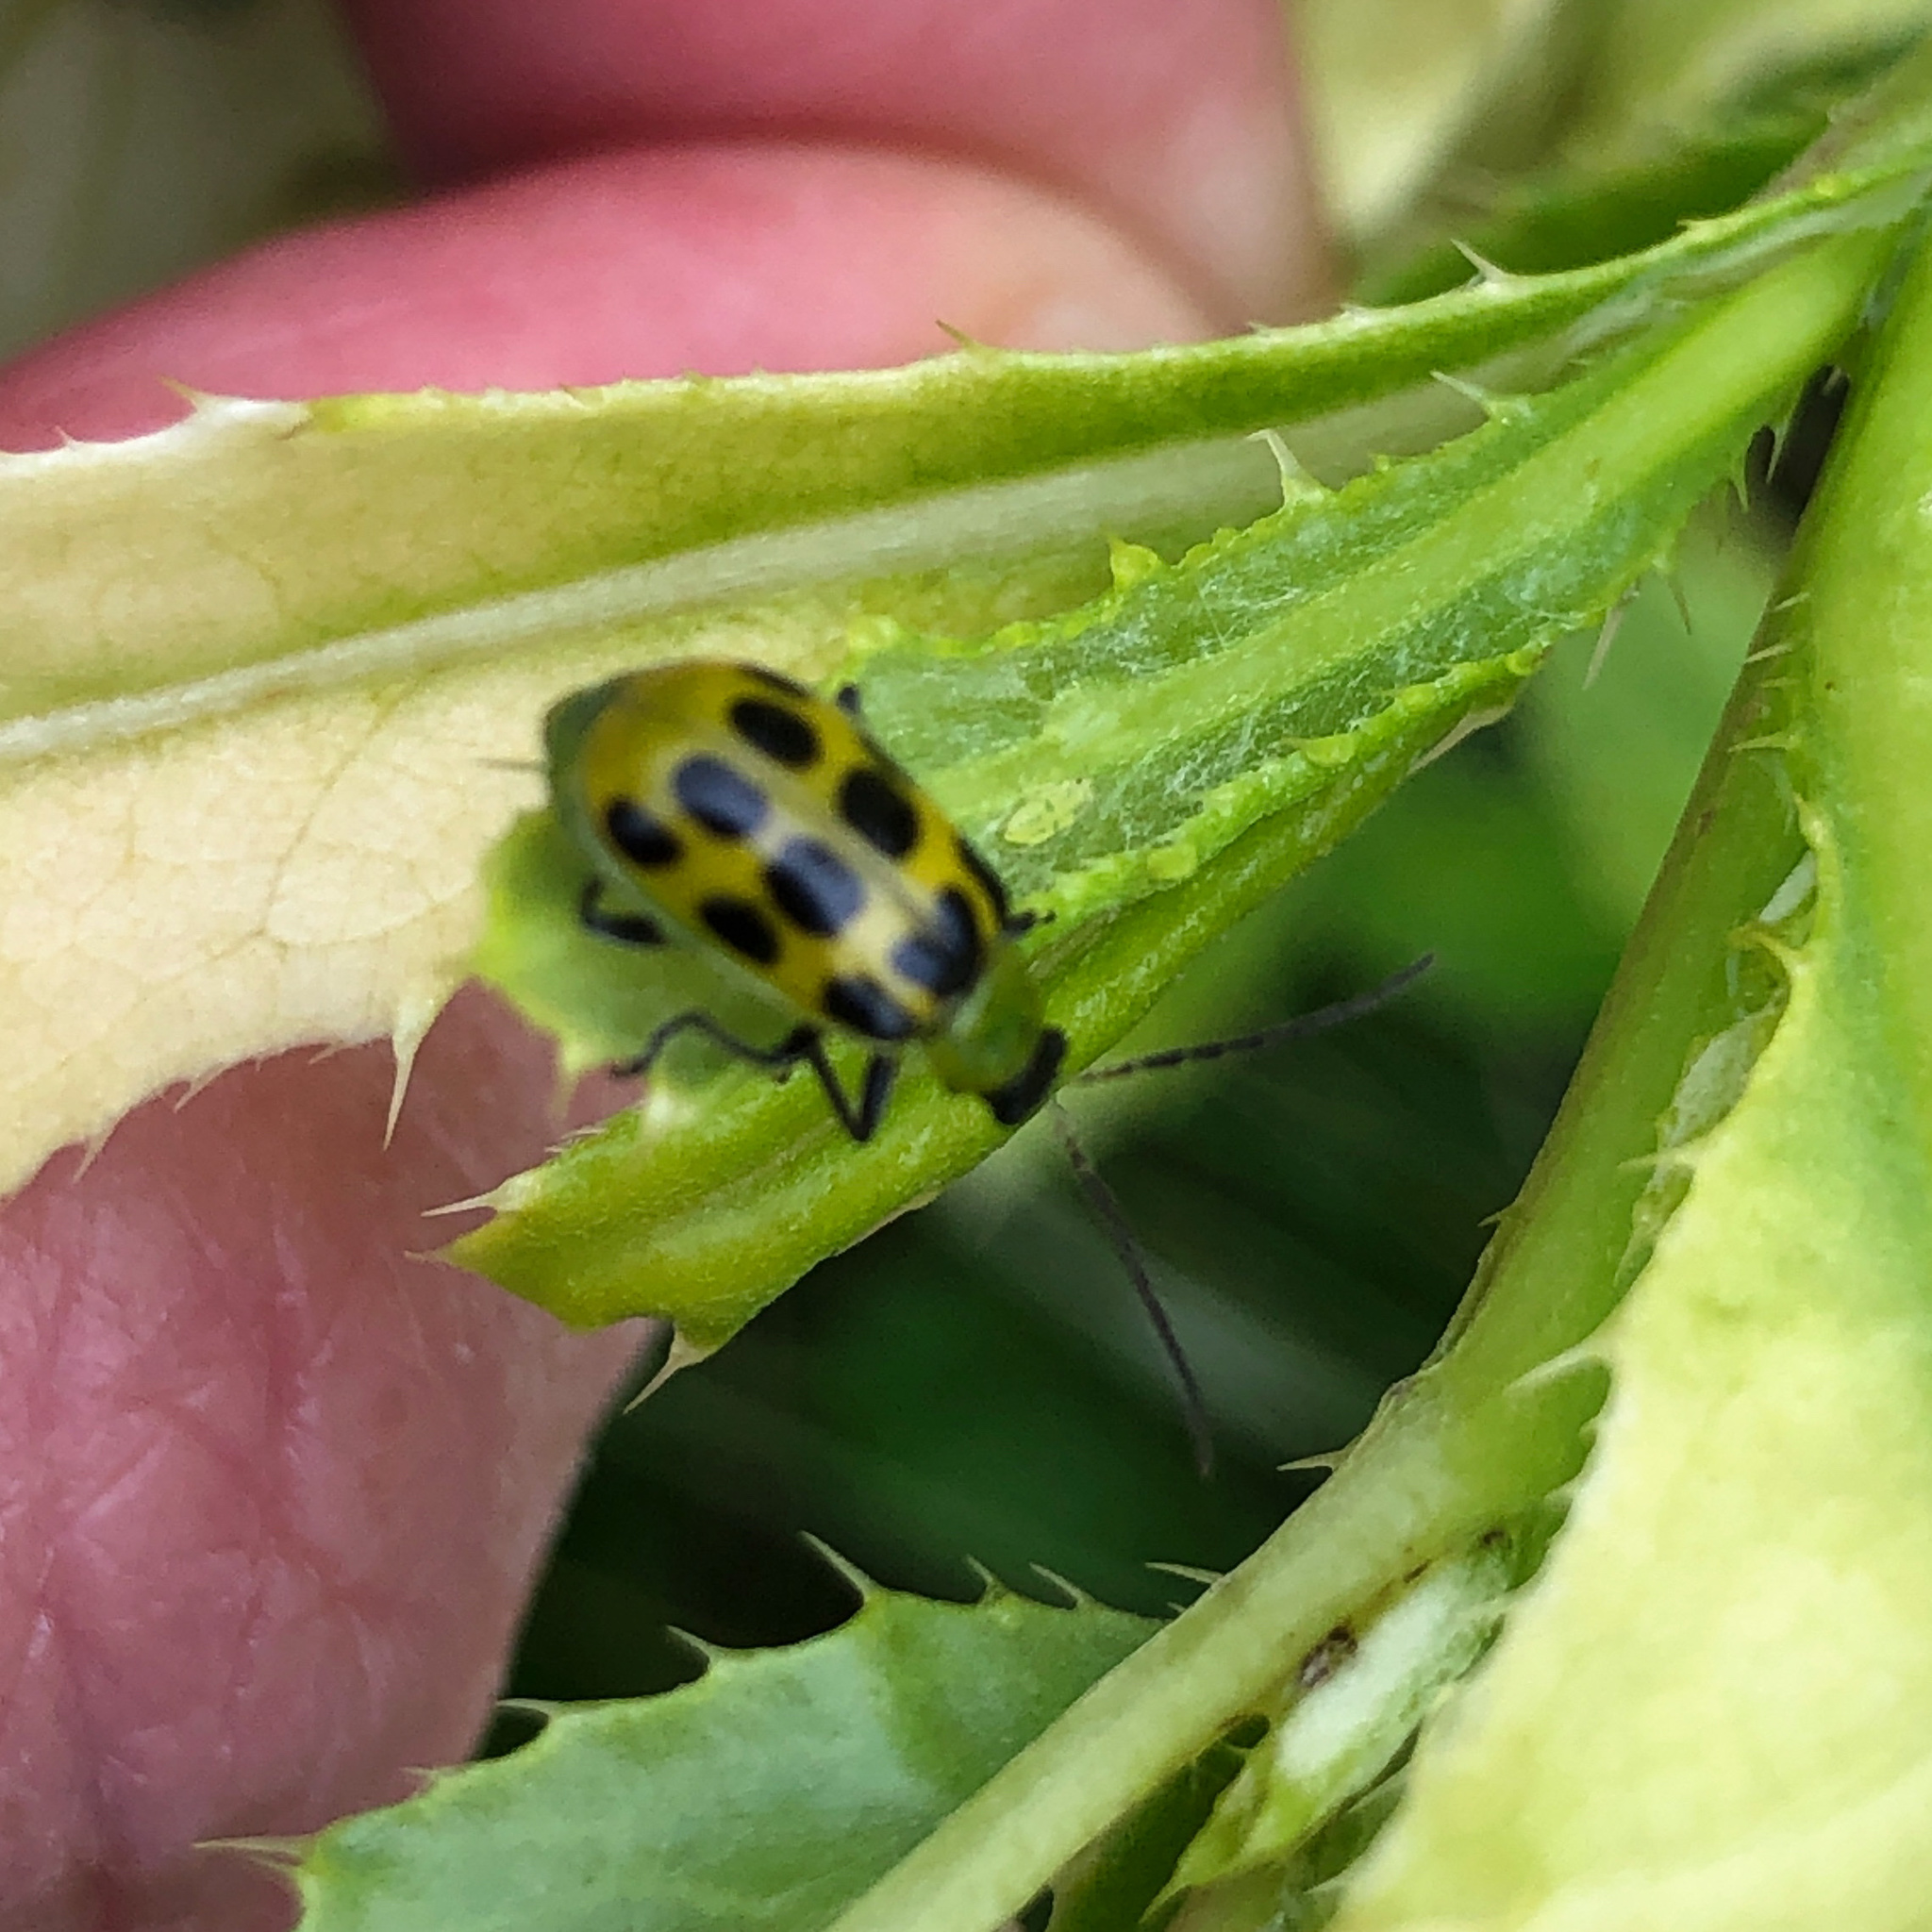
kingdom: Animalia
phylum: Arthropoda
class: Insecta
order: Coleoptera
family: Chrysomelidae
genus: Diabrotica
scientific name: Diabrotica undecimpunctata
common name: Spotted cucumber beetle
